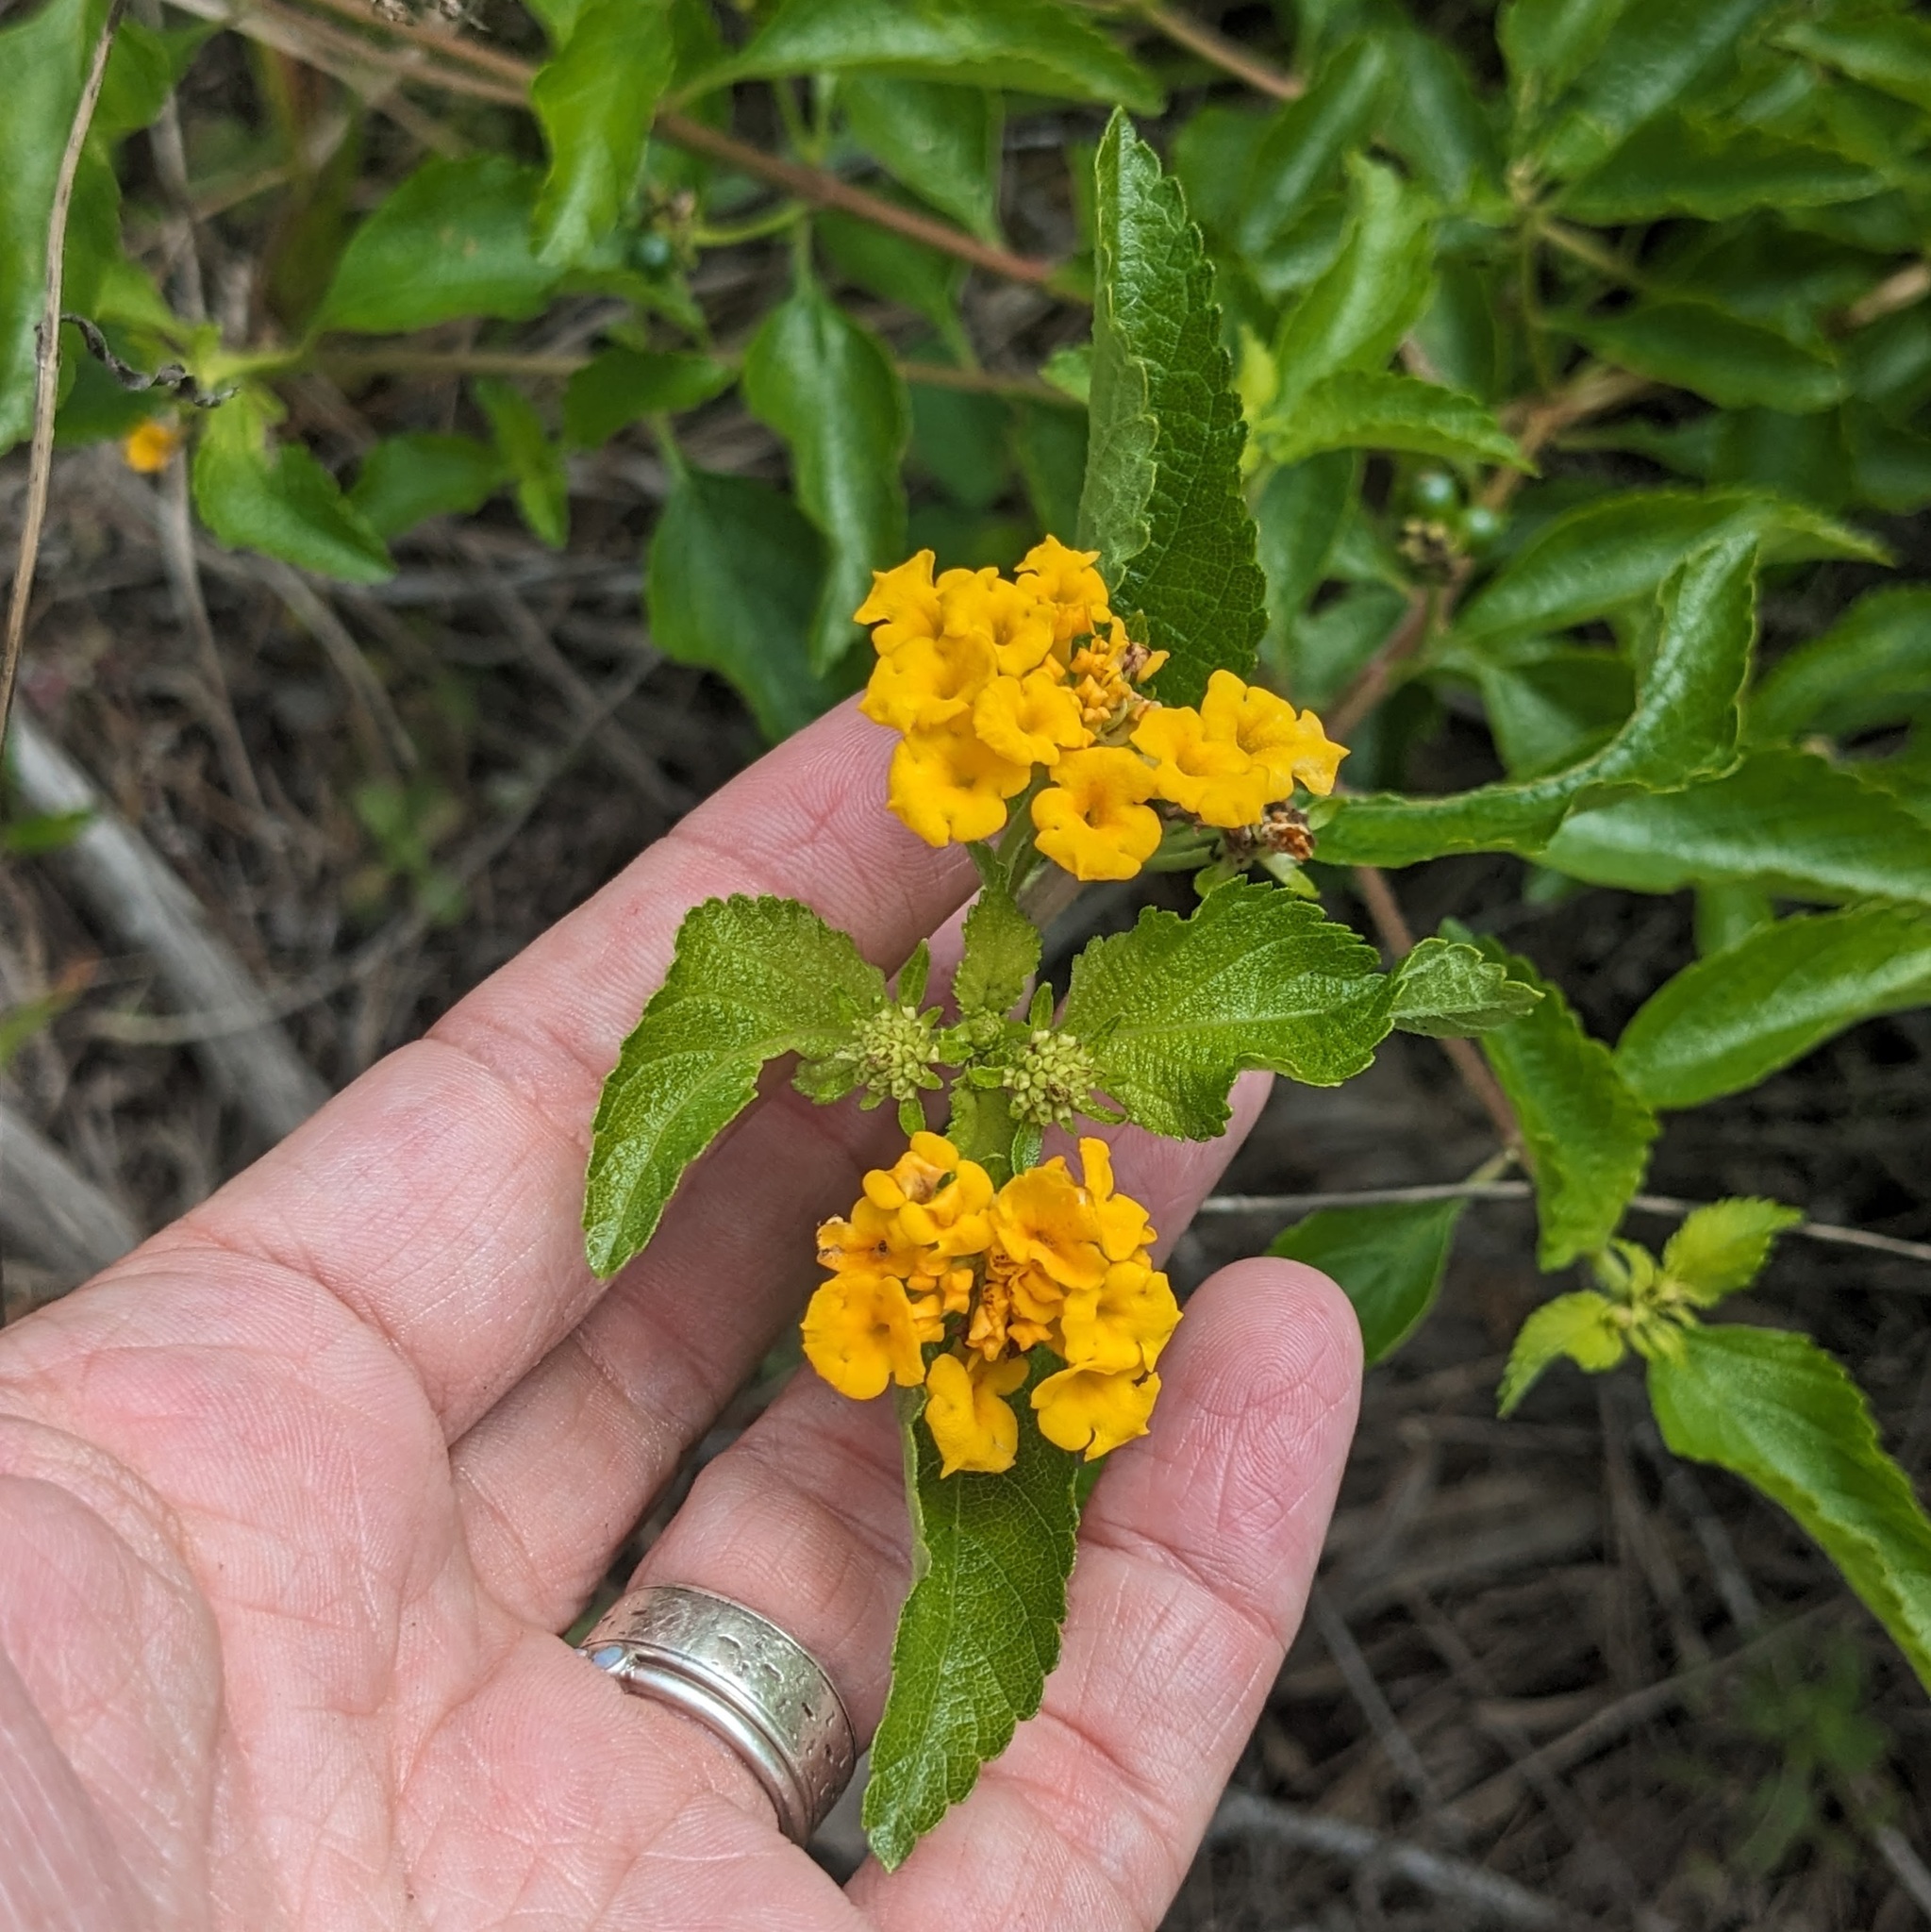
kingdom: Plantae
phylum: Tracheophyta
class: Magnoliopsida
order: Lamiales
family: Verbenaceae
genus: Lantana
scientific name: Lantana depressa
